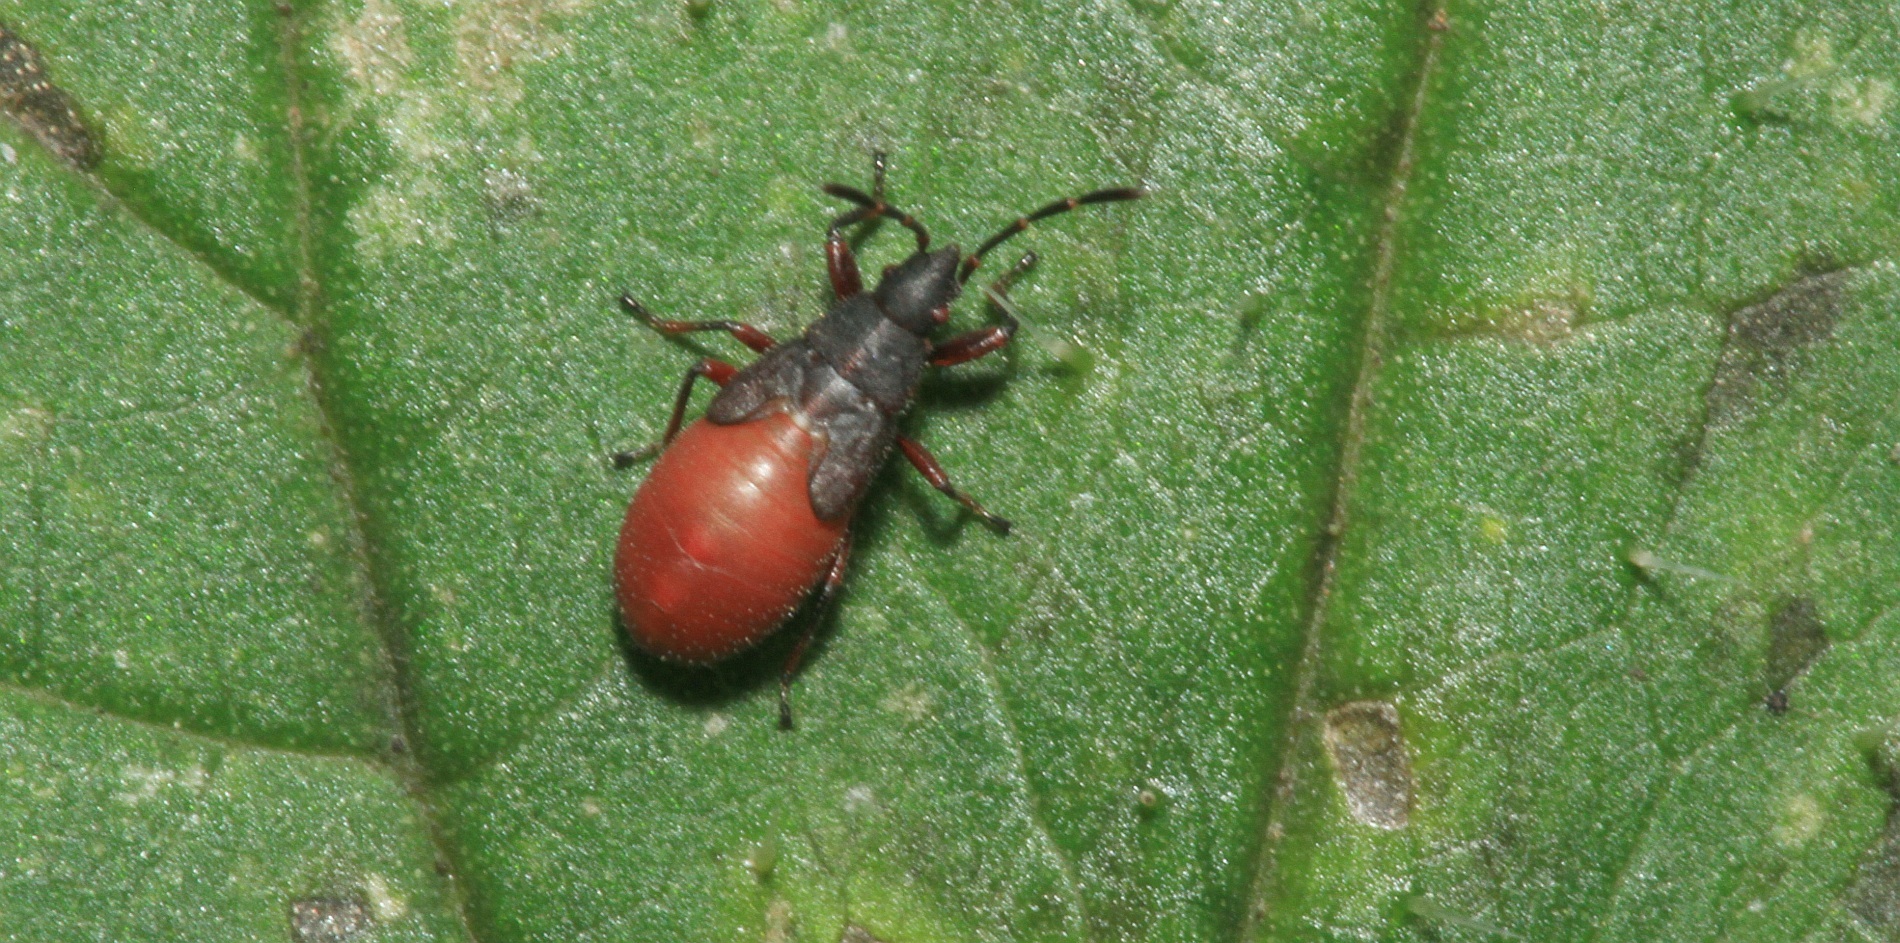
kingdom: Animalia
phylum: Arthropoda
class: Insecta
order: Hemiptera
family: Oxycarenidae
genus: Oxycarenus
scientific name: Oxycarenus lavaterae
